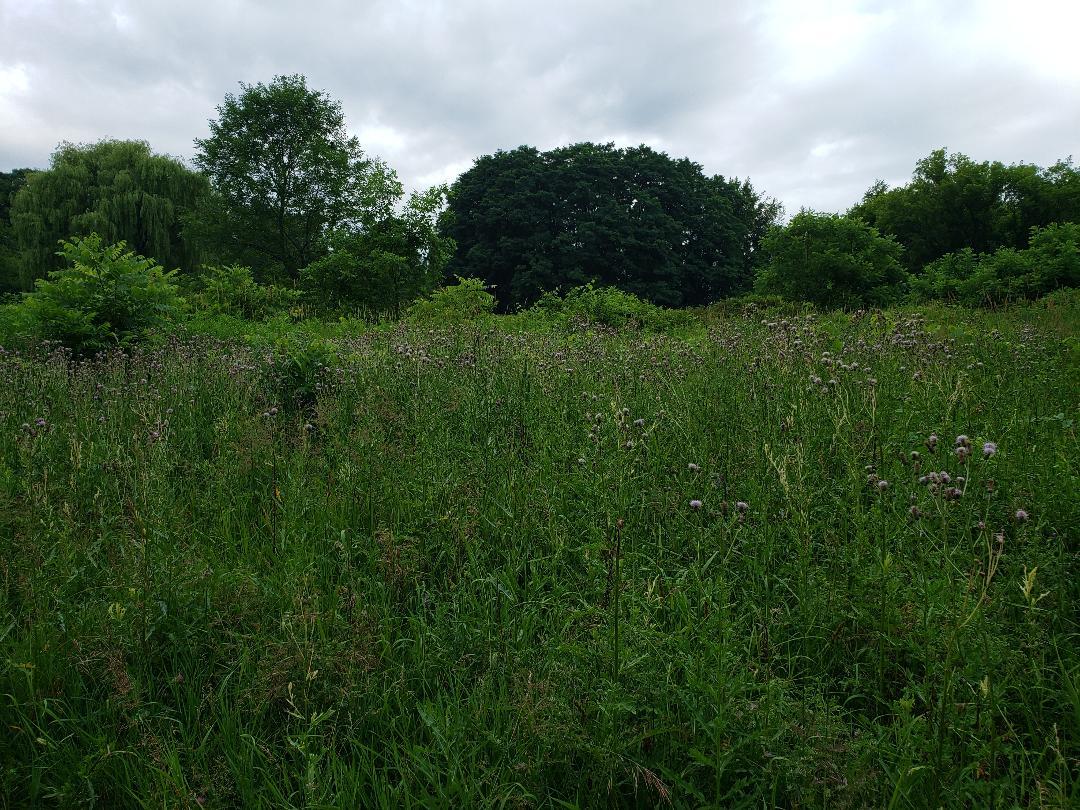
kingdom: Plantae
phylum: Tracheophyta
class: Magnoliopsida
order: Asterales
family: Asteraceae
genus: Cirsium
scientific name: Cirsium arvense
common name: Creeping thistle
